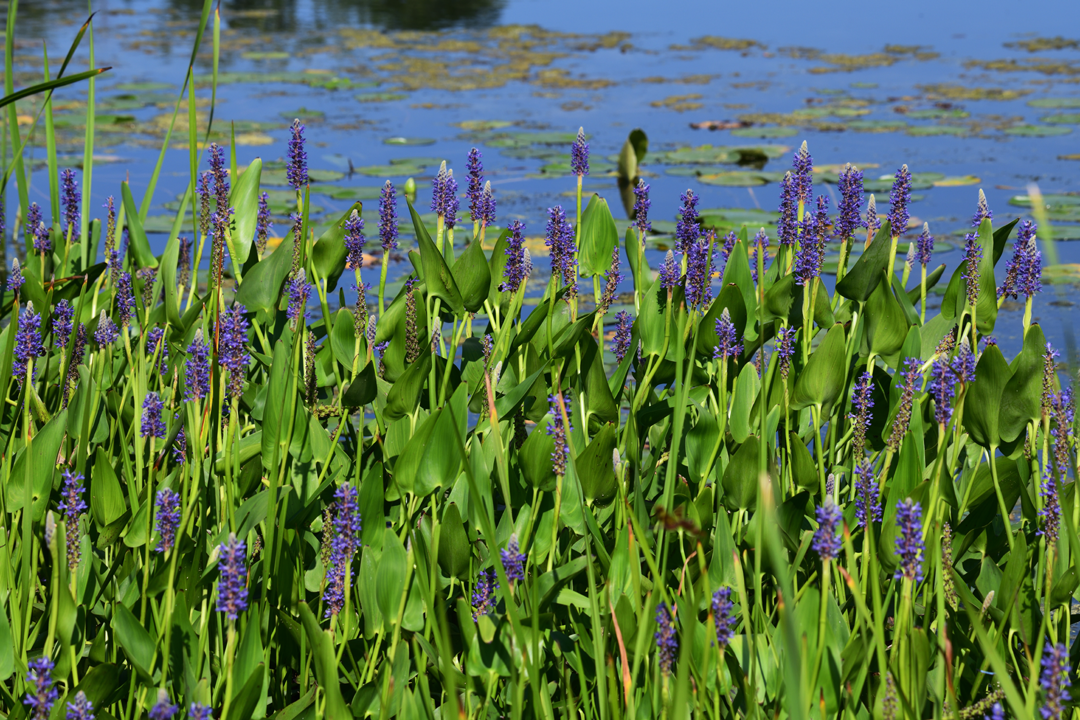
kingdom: Plantae
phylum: Tracheophyta
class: Liliopsida
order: Commelinales
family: Pontederiaceae
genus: Pontederia
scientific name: Pontederia cordata
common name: Pickerelweed
